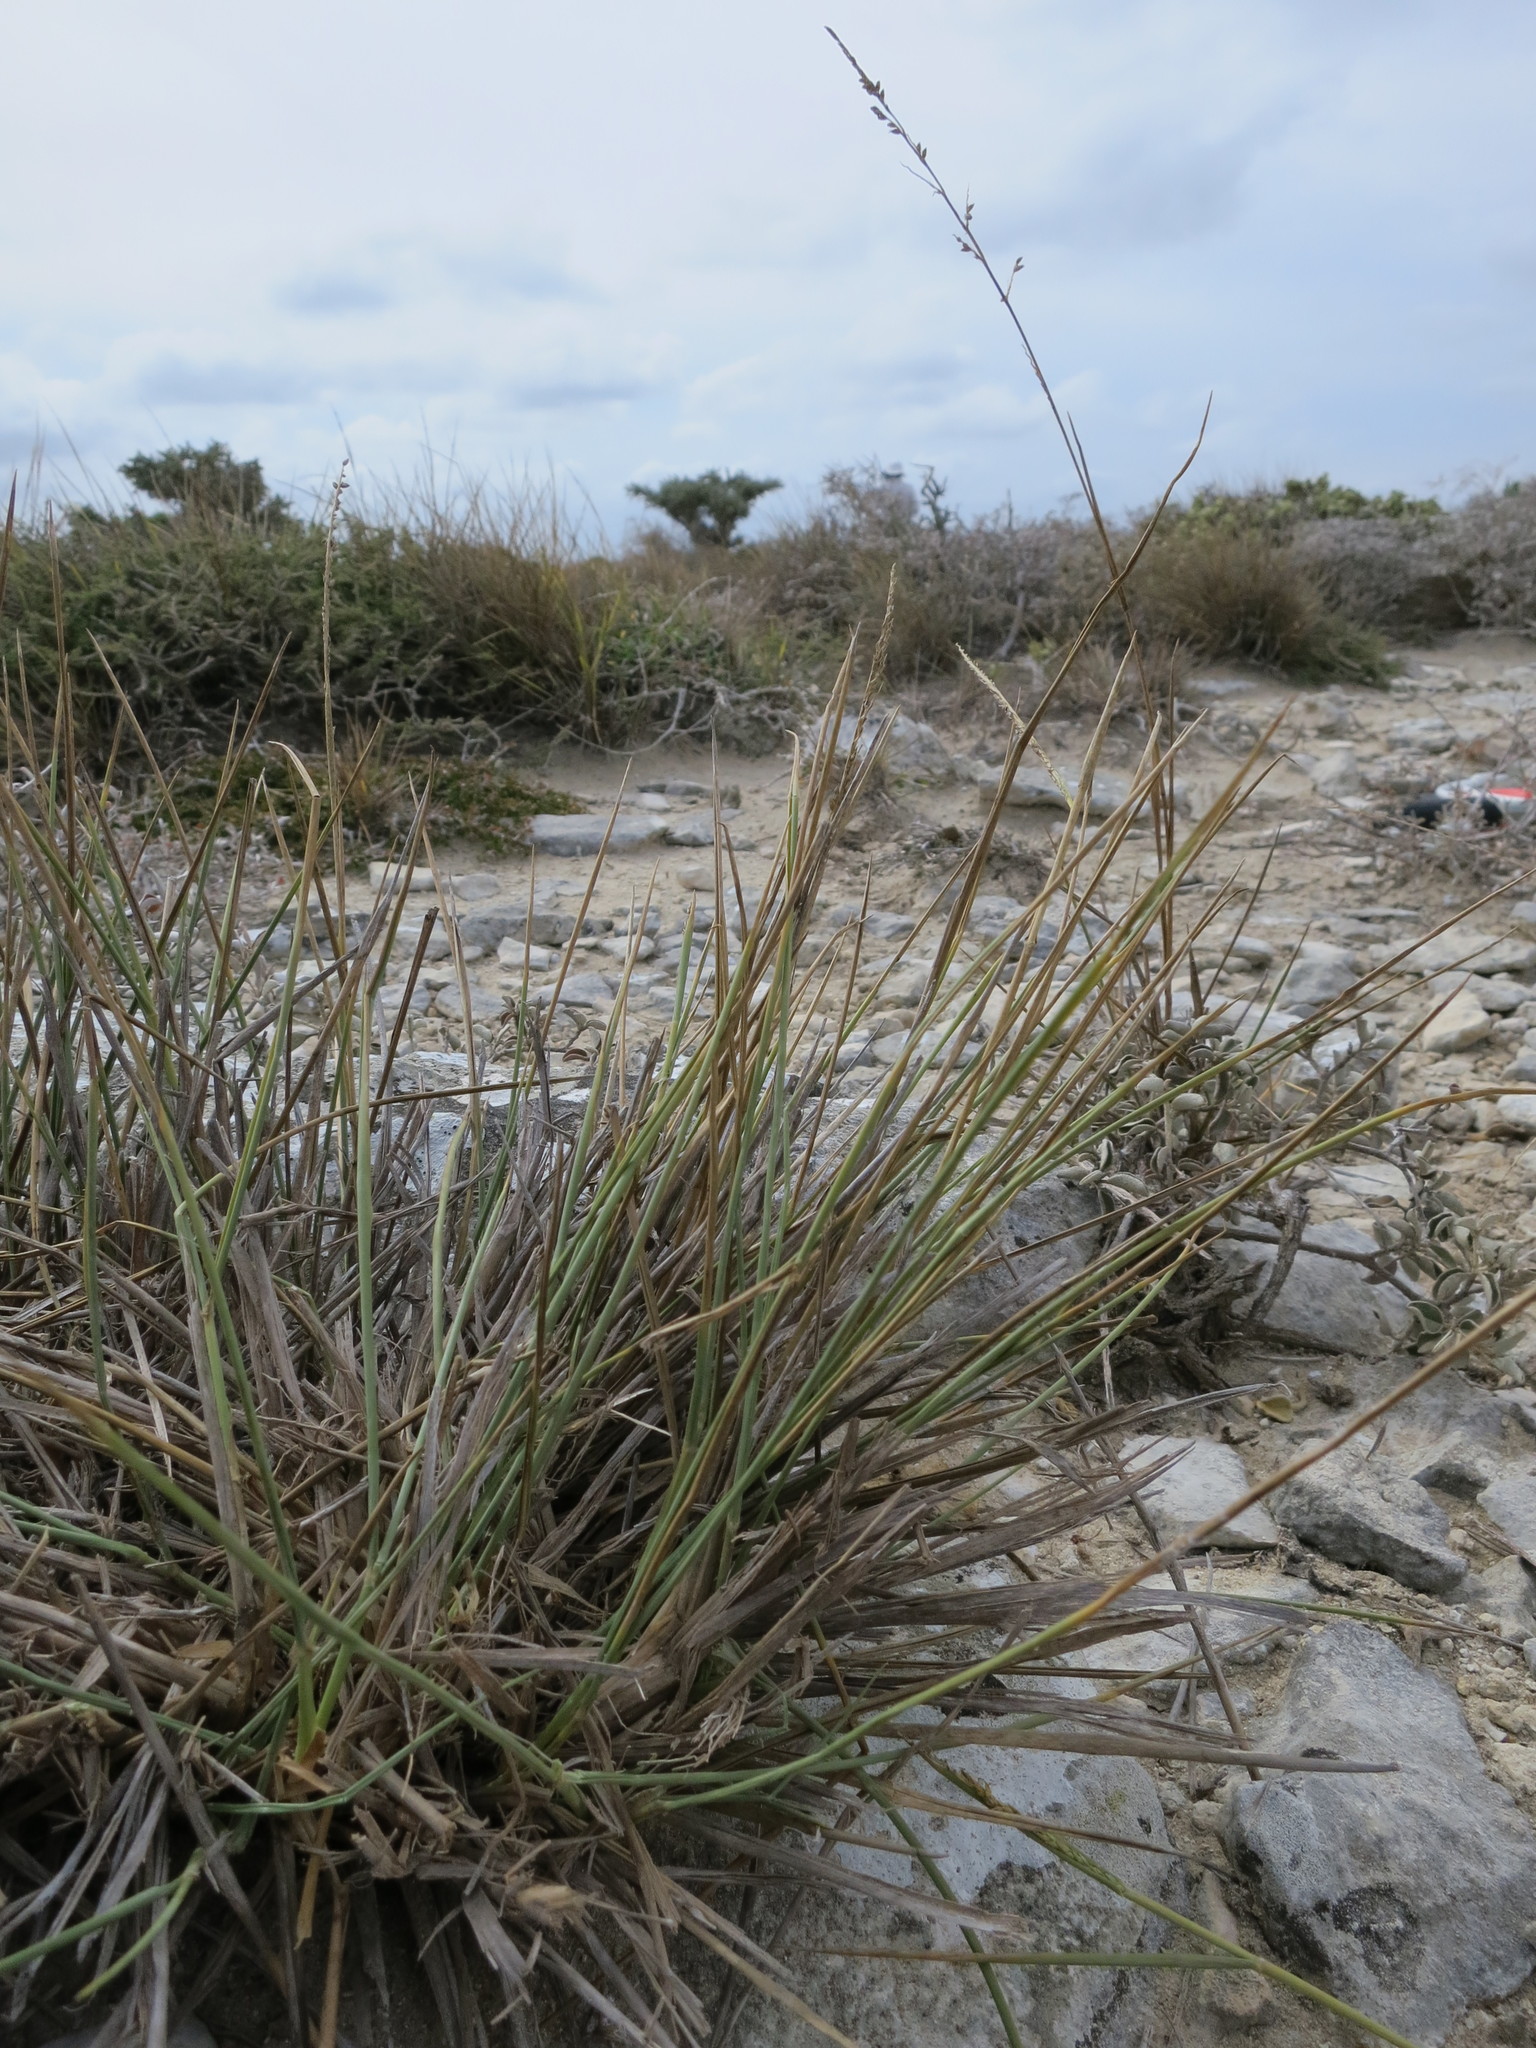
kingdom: Plantae
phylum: Tracheophyta
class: Liliopsida
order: Poales
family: Poaceae
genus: Setaria
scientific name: Setaria humbertiana
